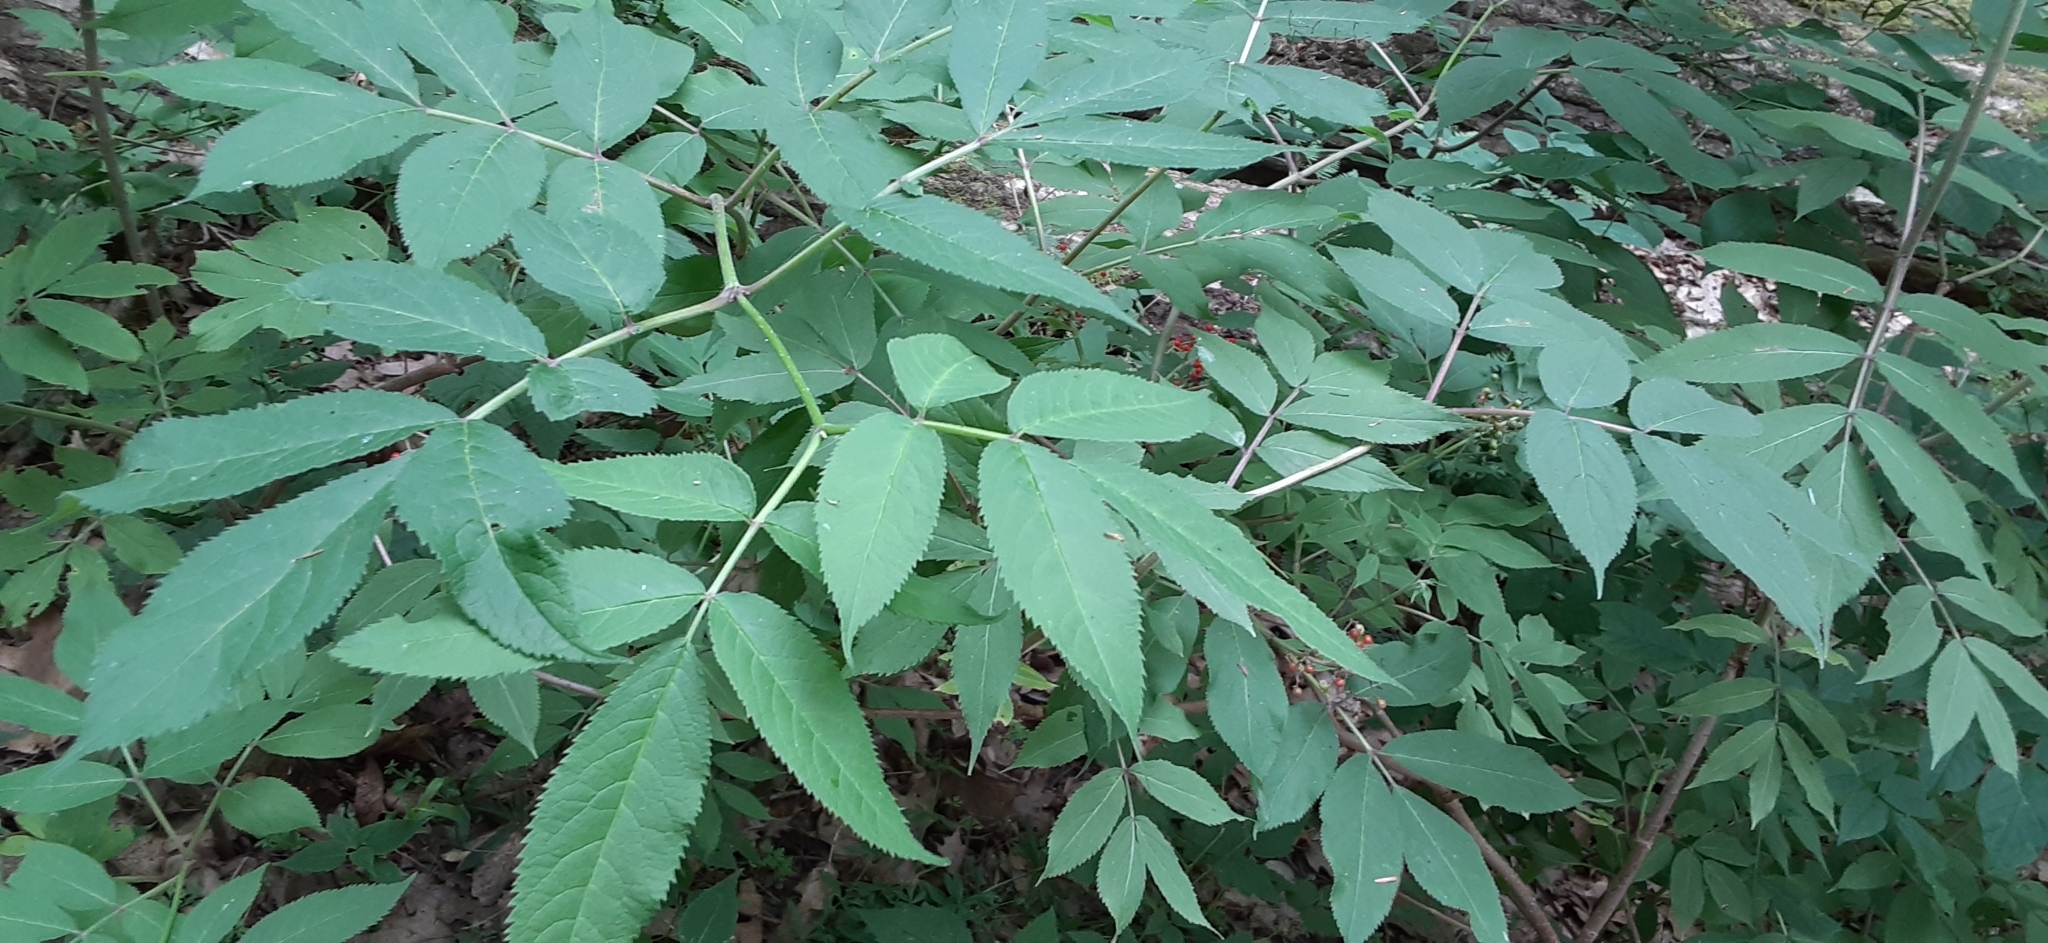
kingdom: Plantae
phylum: Tracheophyta
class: Magnoliopsida
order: Dipsacales
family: Viburnaceae
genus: Sambucus
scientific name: Sambucus racemosa
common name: Red-berried elder
